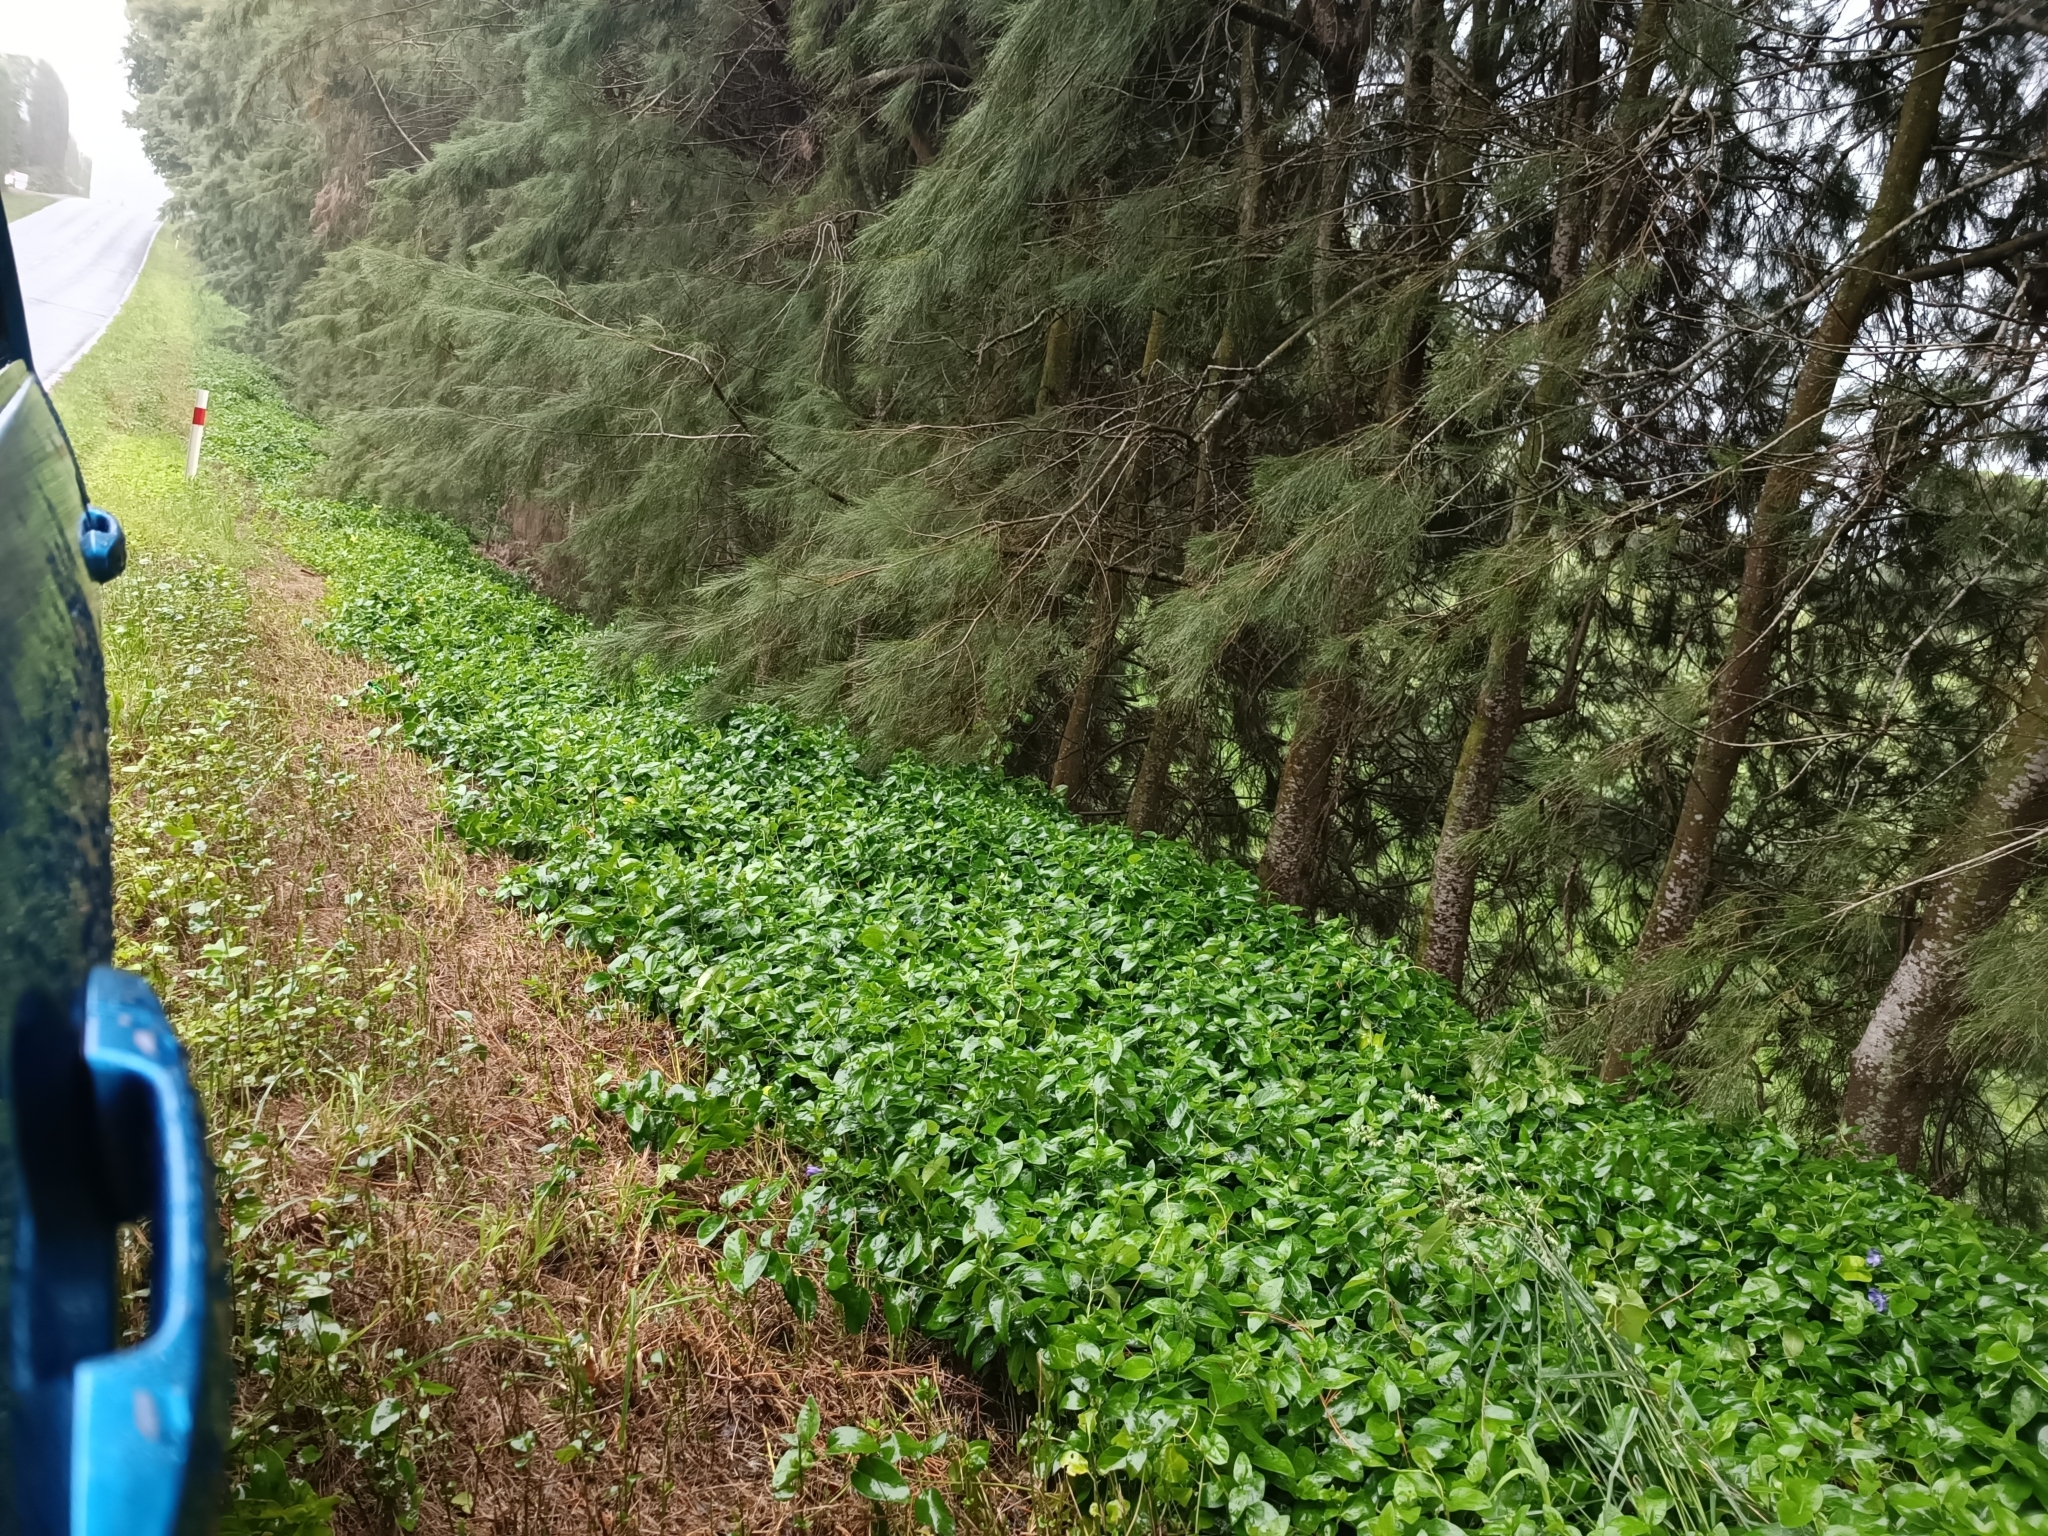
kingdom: Plantae
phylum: Tracheophyta
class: Magnoliopsida
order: Gentianales
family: Apocynaceae
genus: Vinca
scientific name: Vinca major
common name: Greater periwinkle
